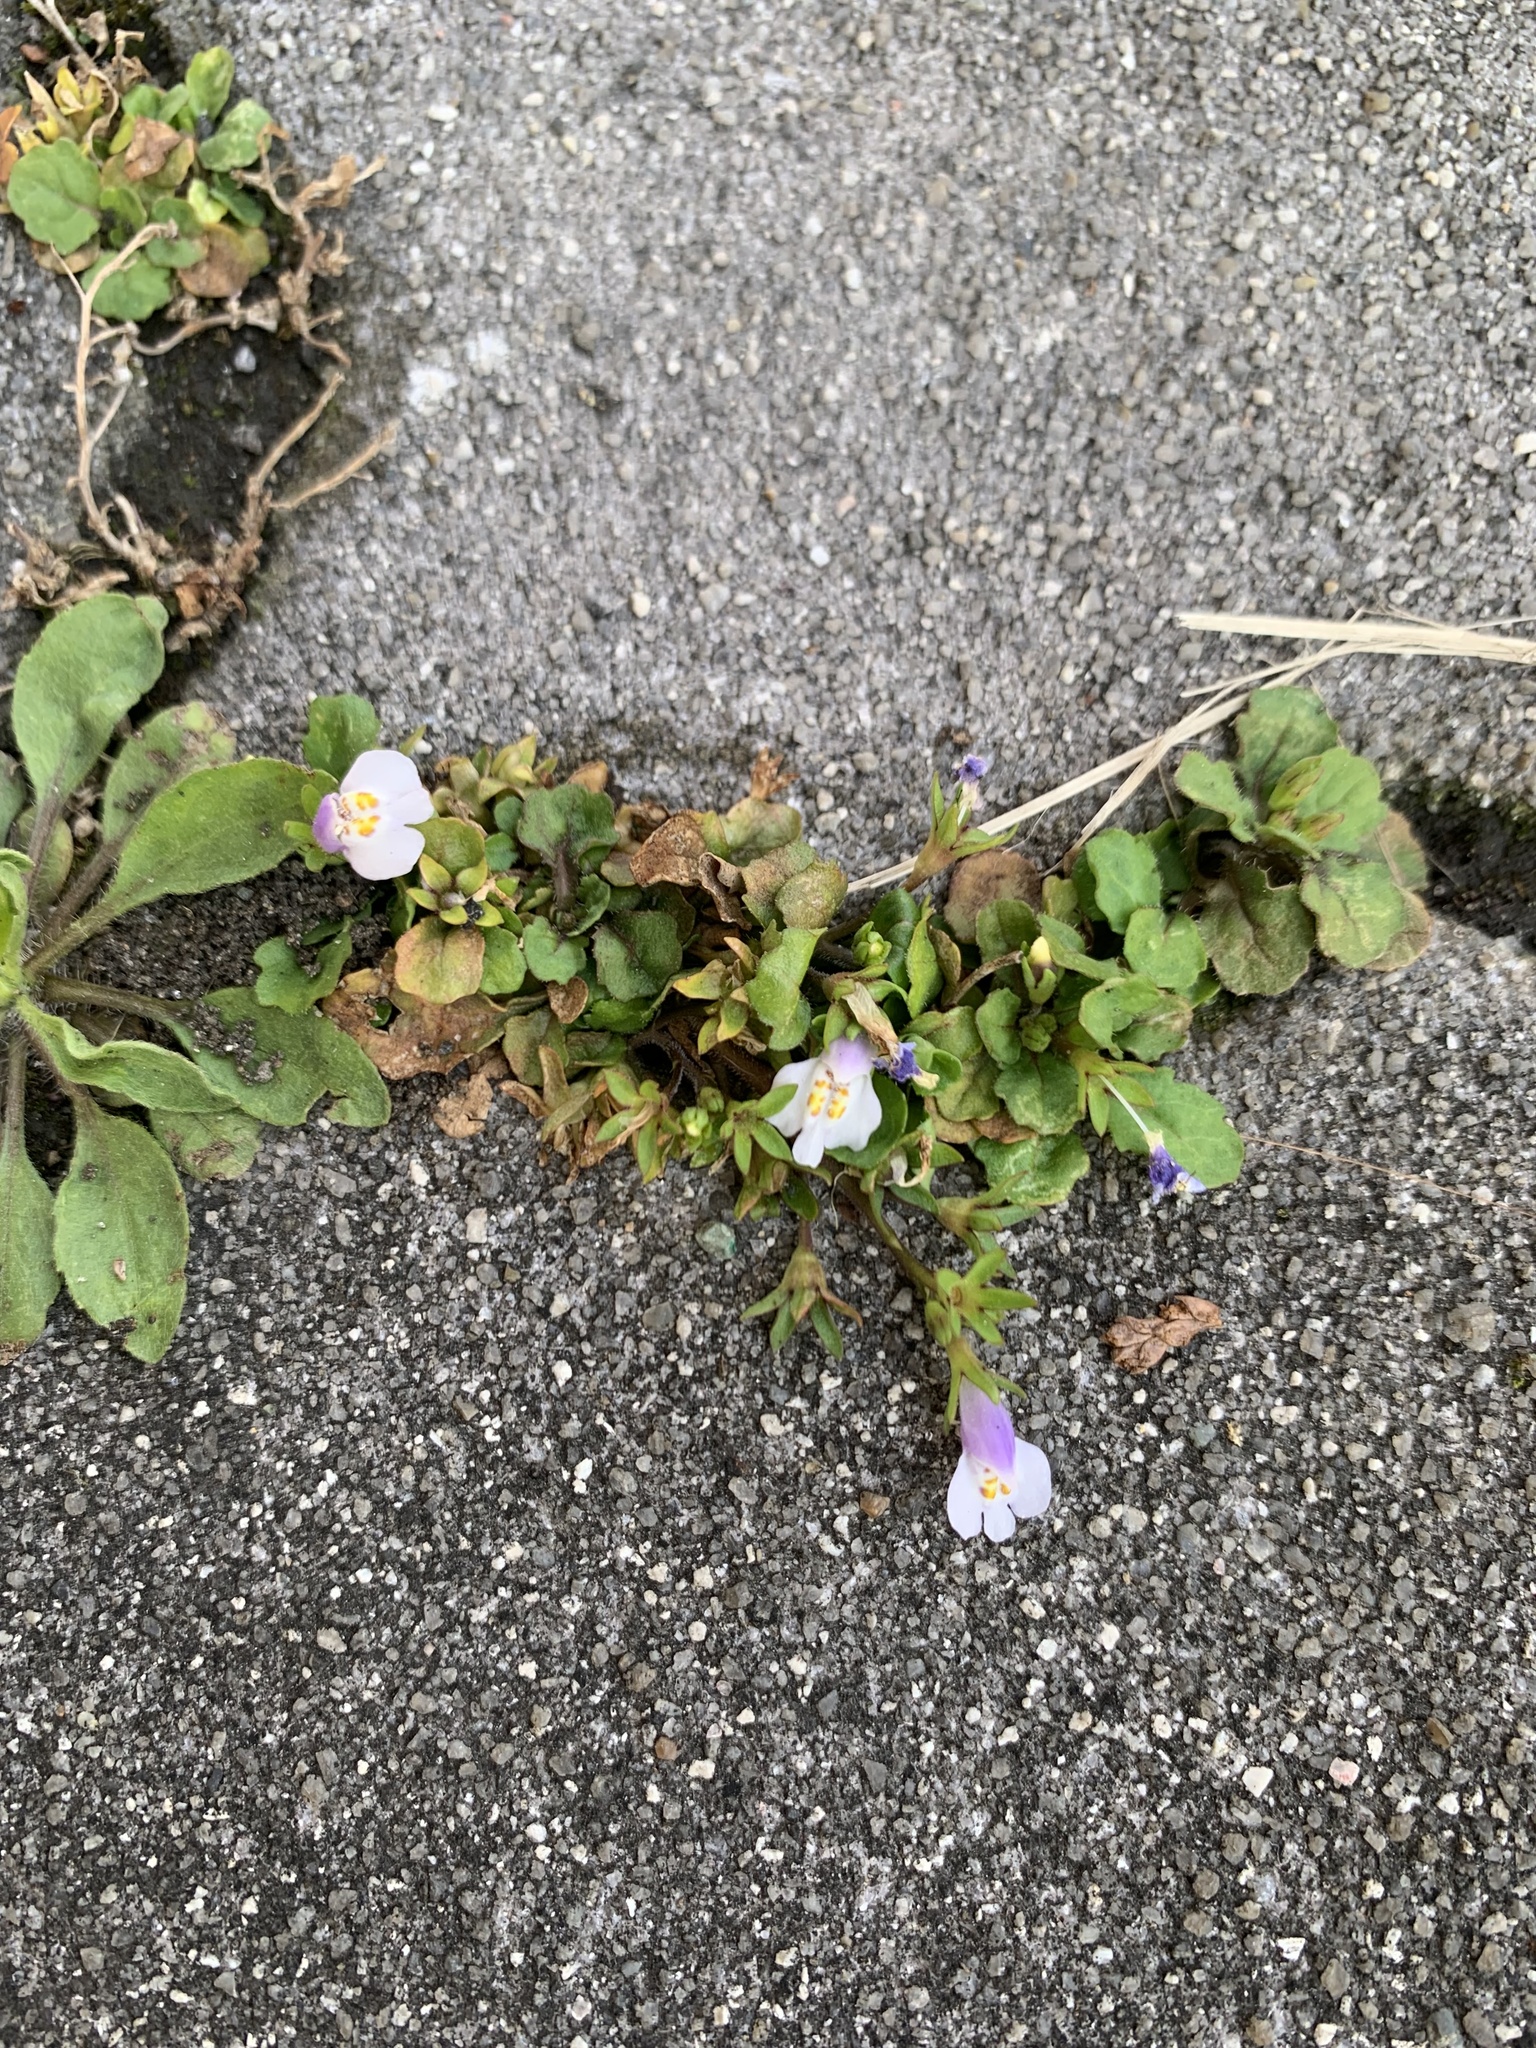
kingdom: Plantae
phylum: Tracheophyta
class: Magnoliopsida
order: Lamiales
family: Mazaceae
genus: Mazus
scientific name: Mazus pumilus
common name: Japanese mazus
